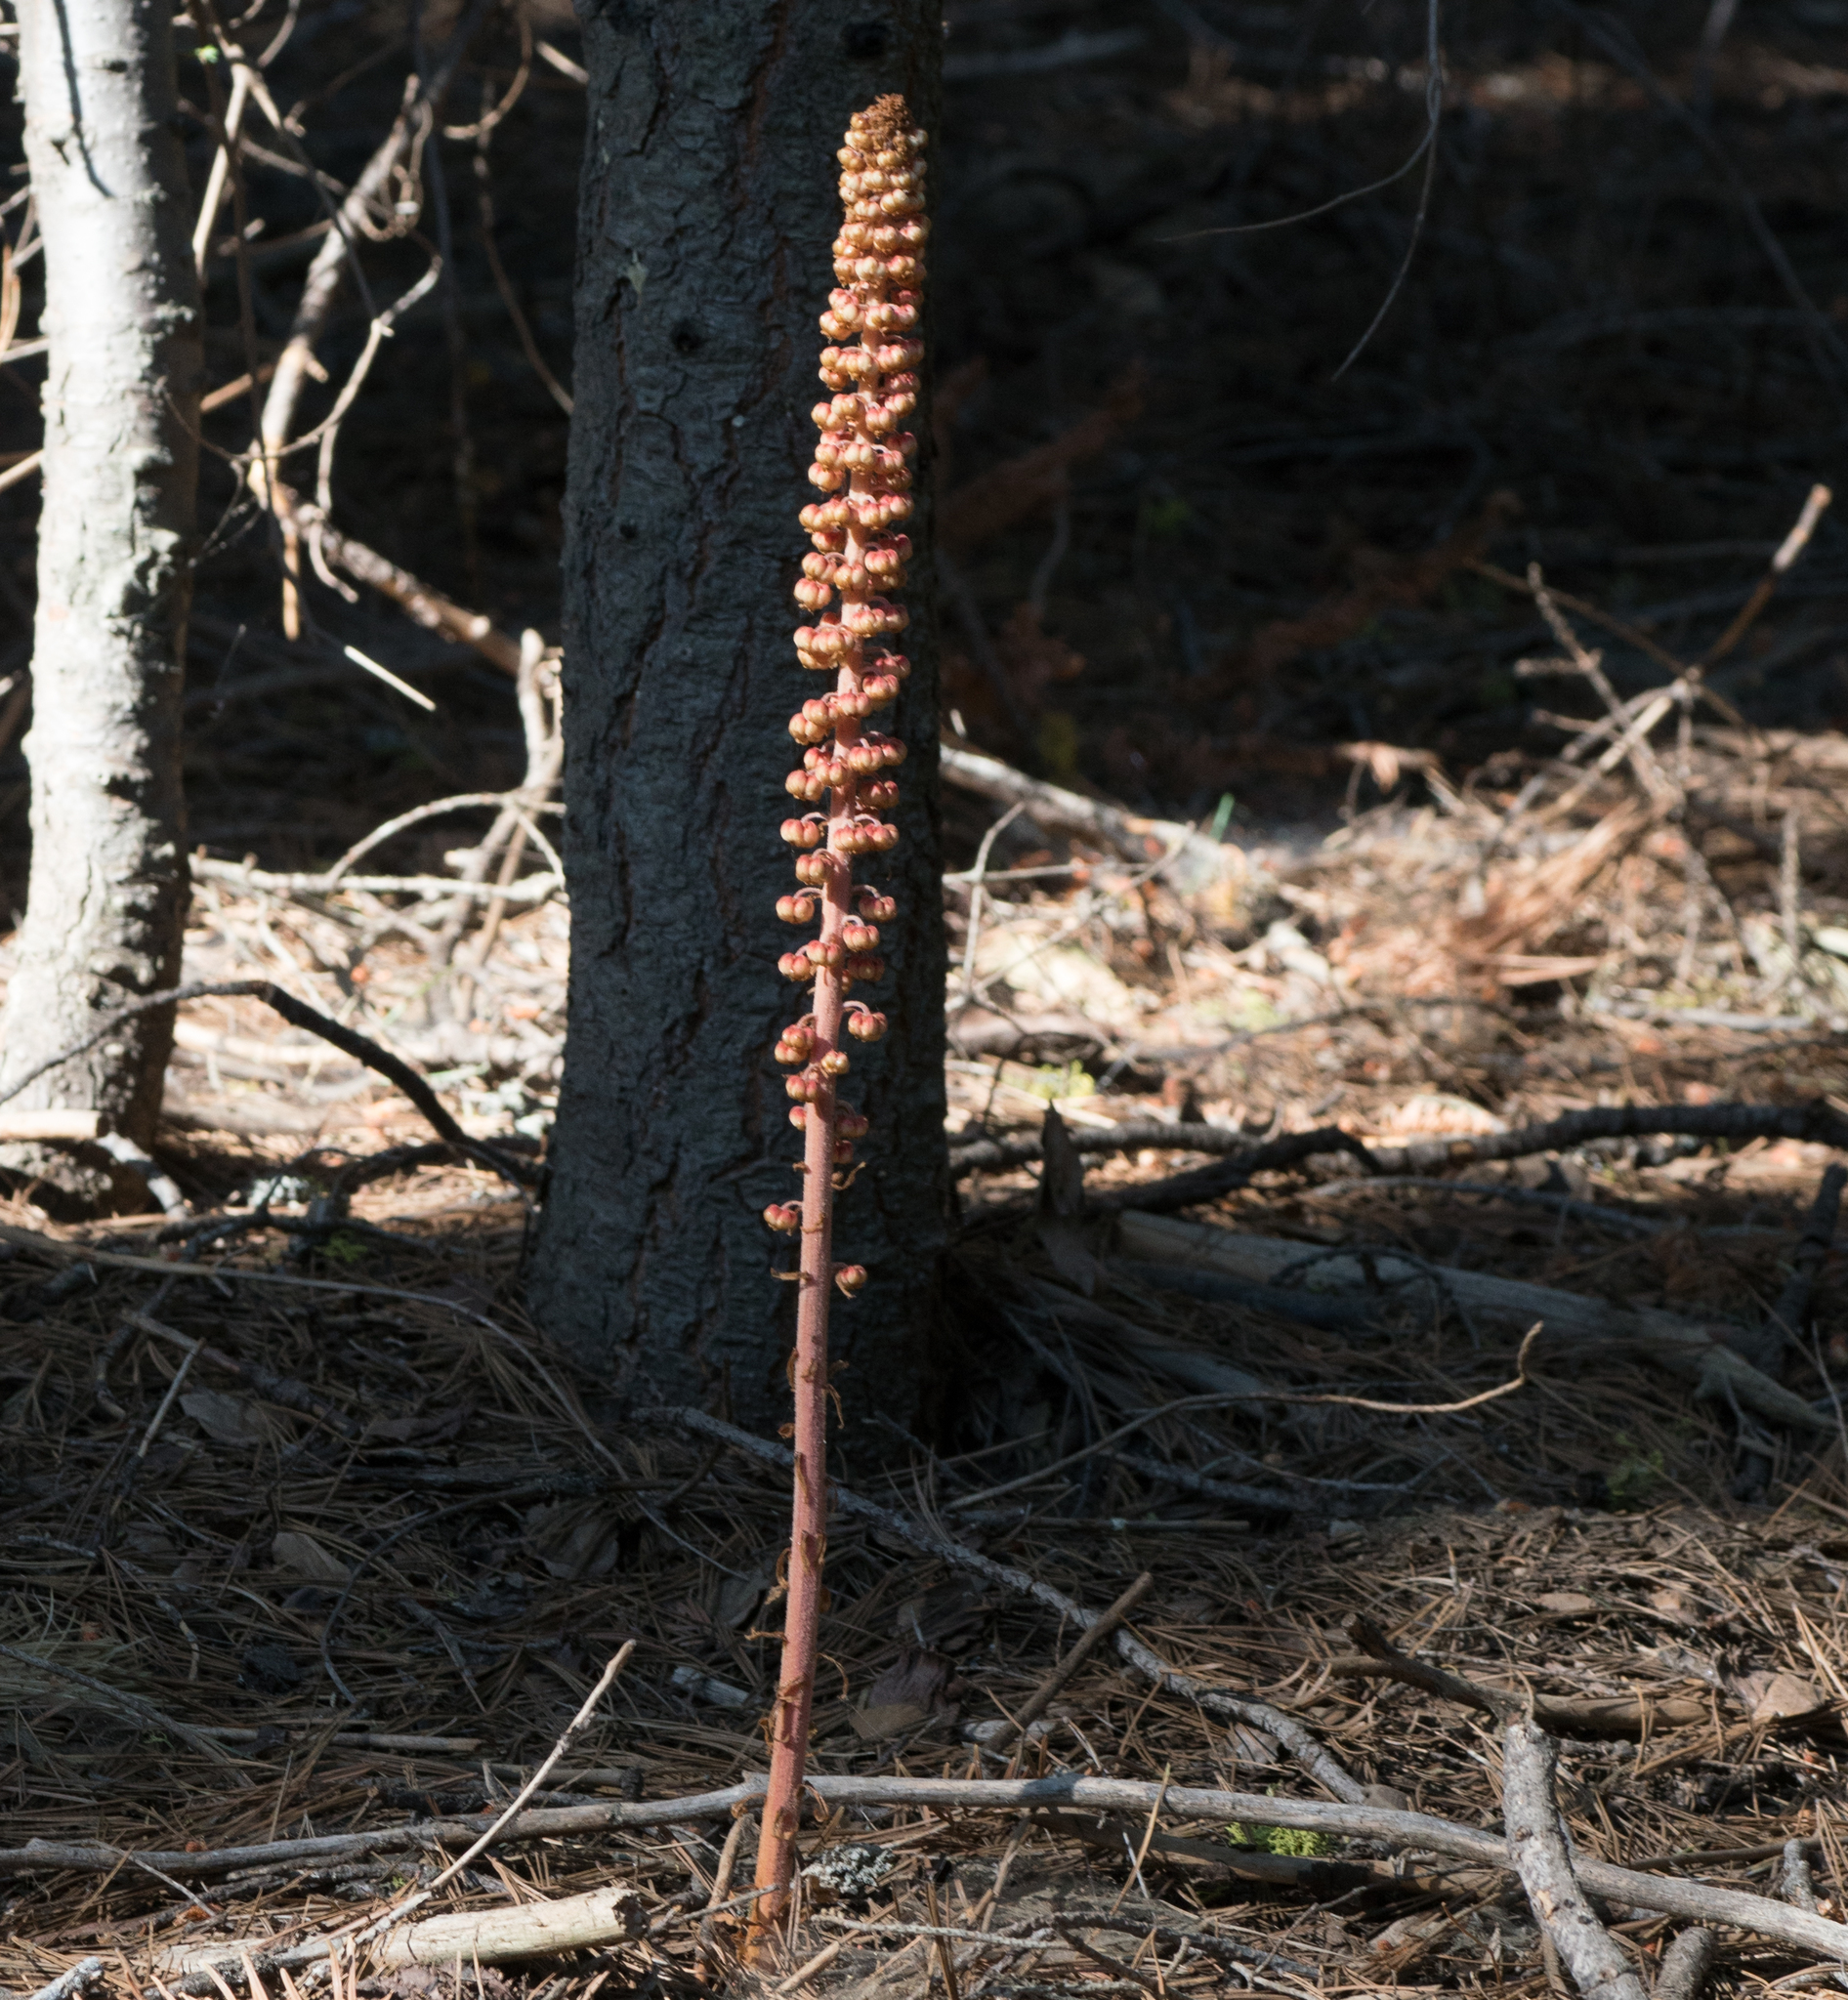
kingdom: Plantae
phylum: Tracheophyta
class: Magnoliopsida
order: Ericales
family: Ericaceae
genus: Pterospora
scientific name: Pterospora andromedea
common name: Giant bird's-nest
